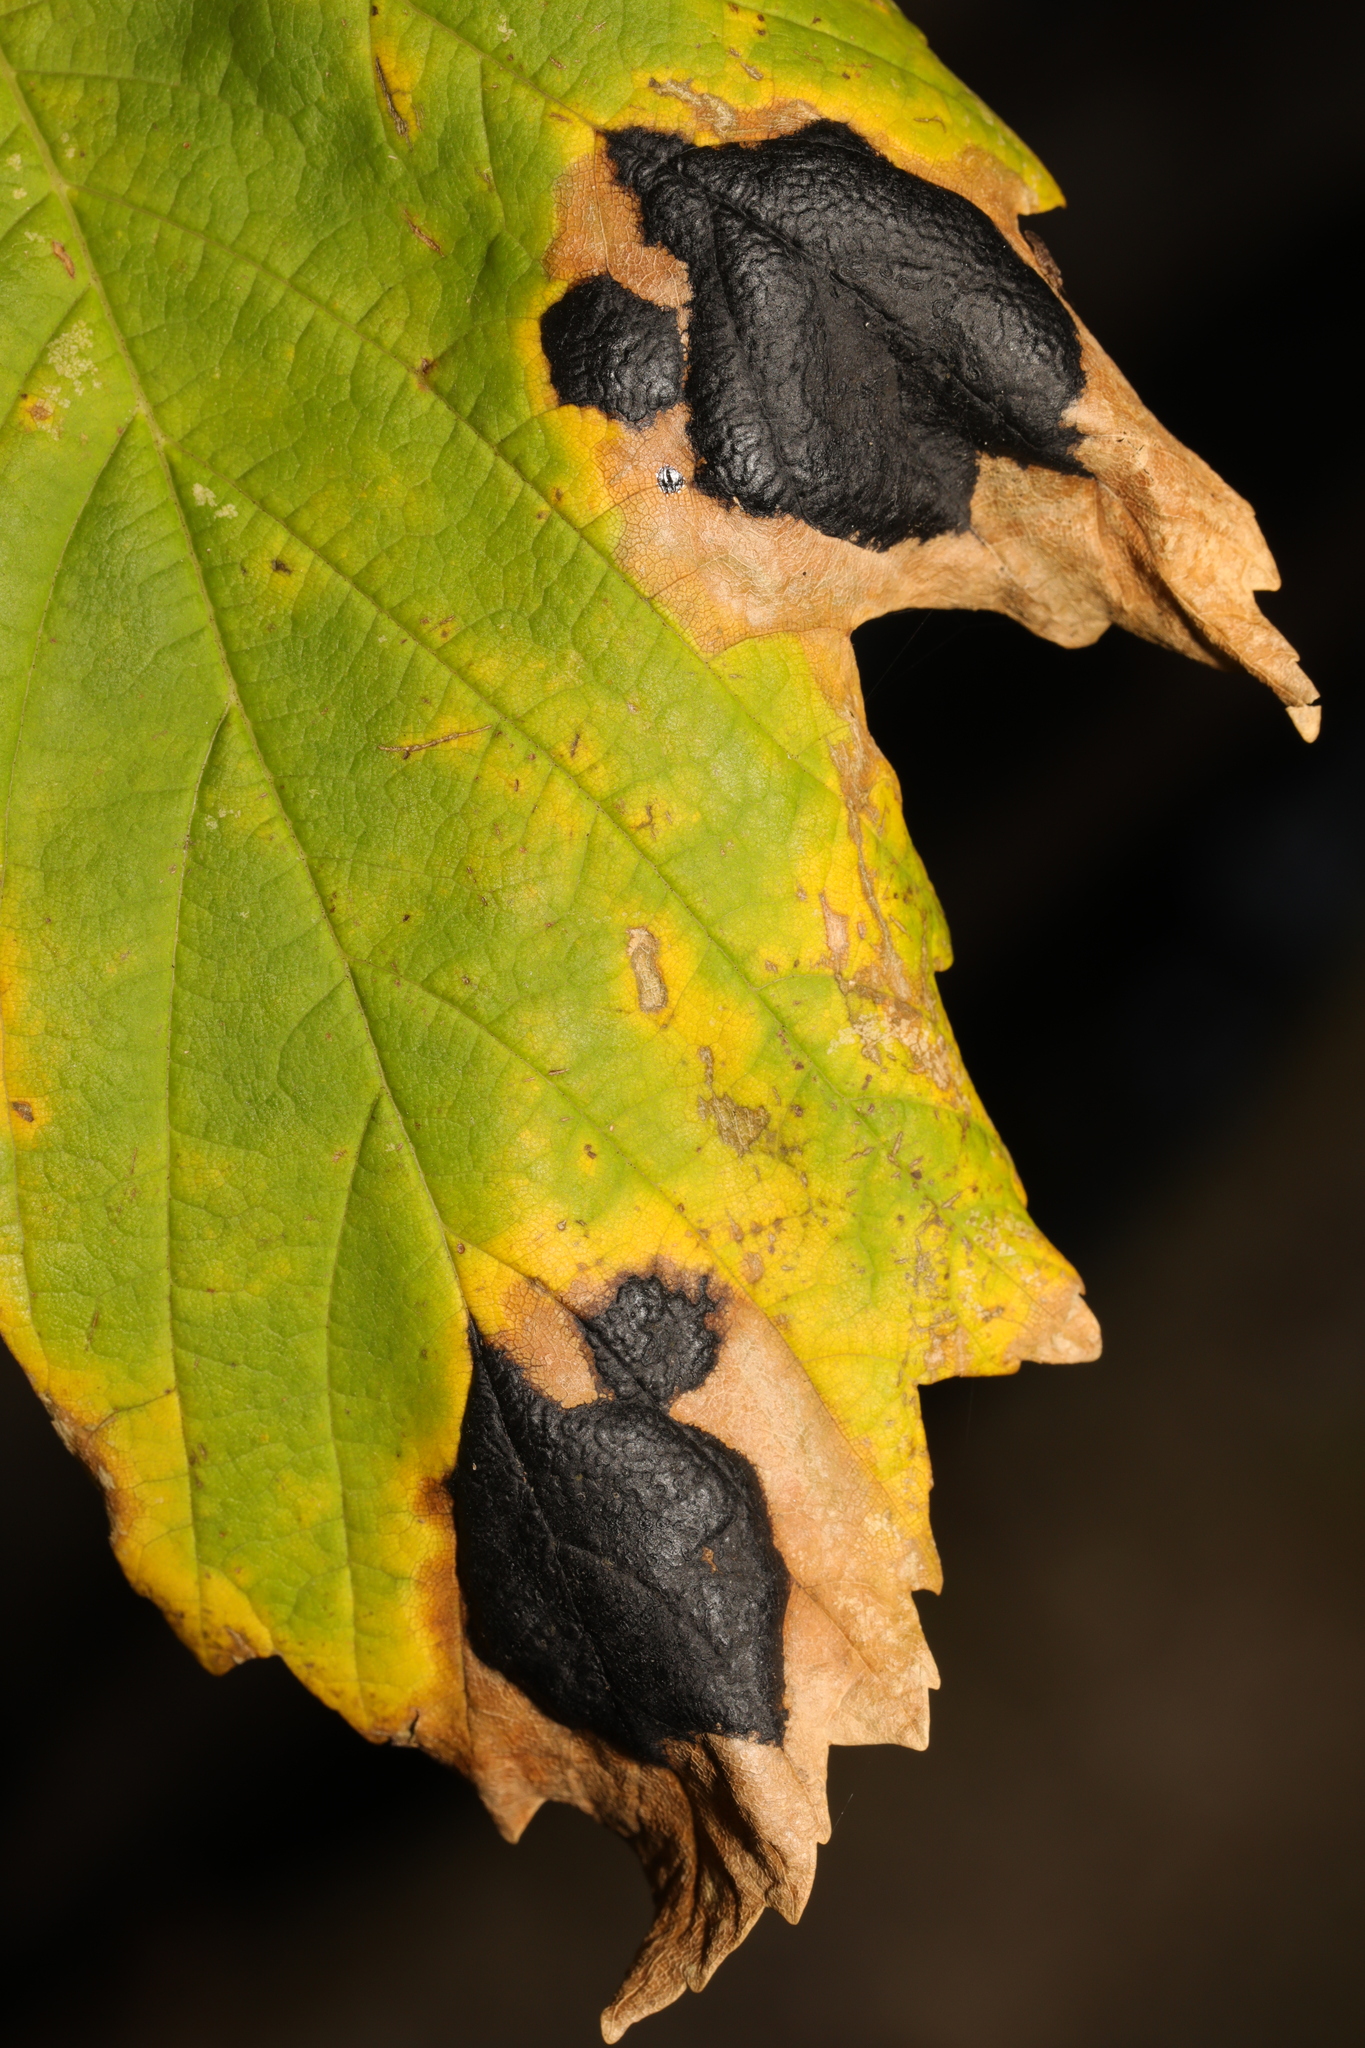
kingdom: Fungi
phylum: Ascomycota
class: Leotiomycetes
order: Rhytismatales
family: Rhytismataceae
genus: Rhytisma
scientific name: Rhytisma acerinum
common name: European tar spot
